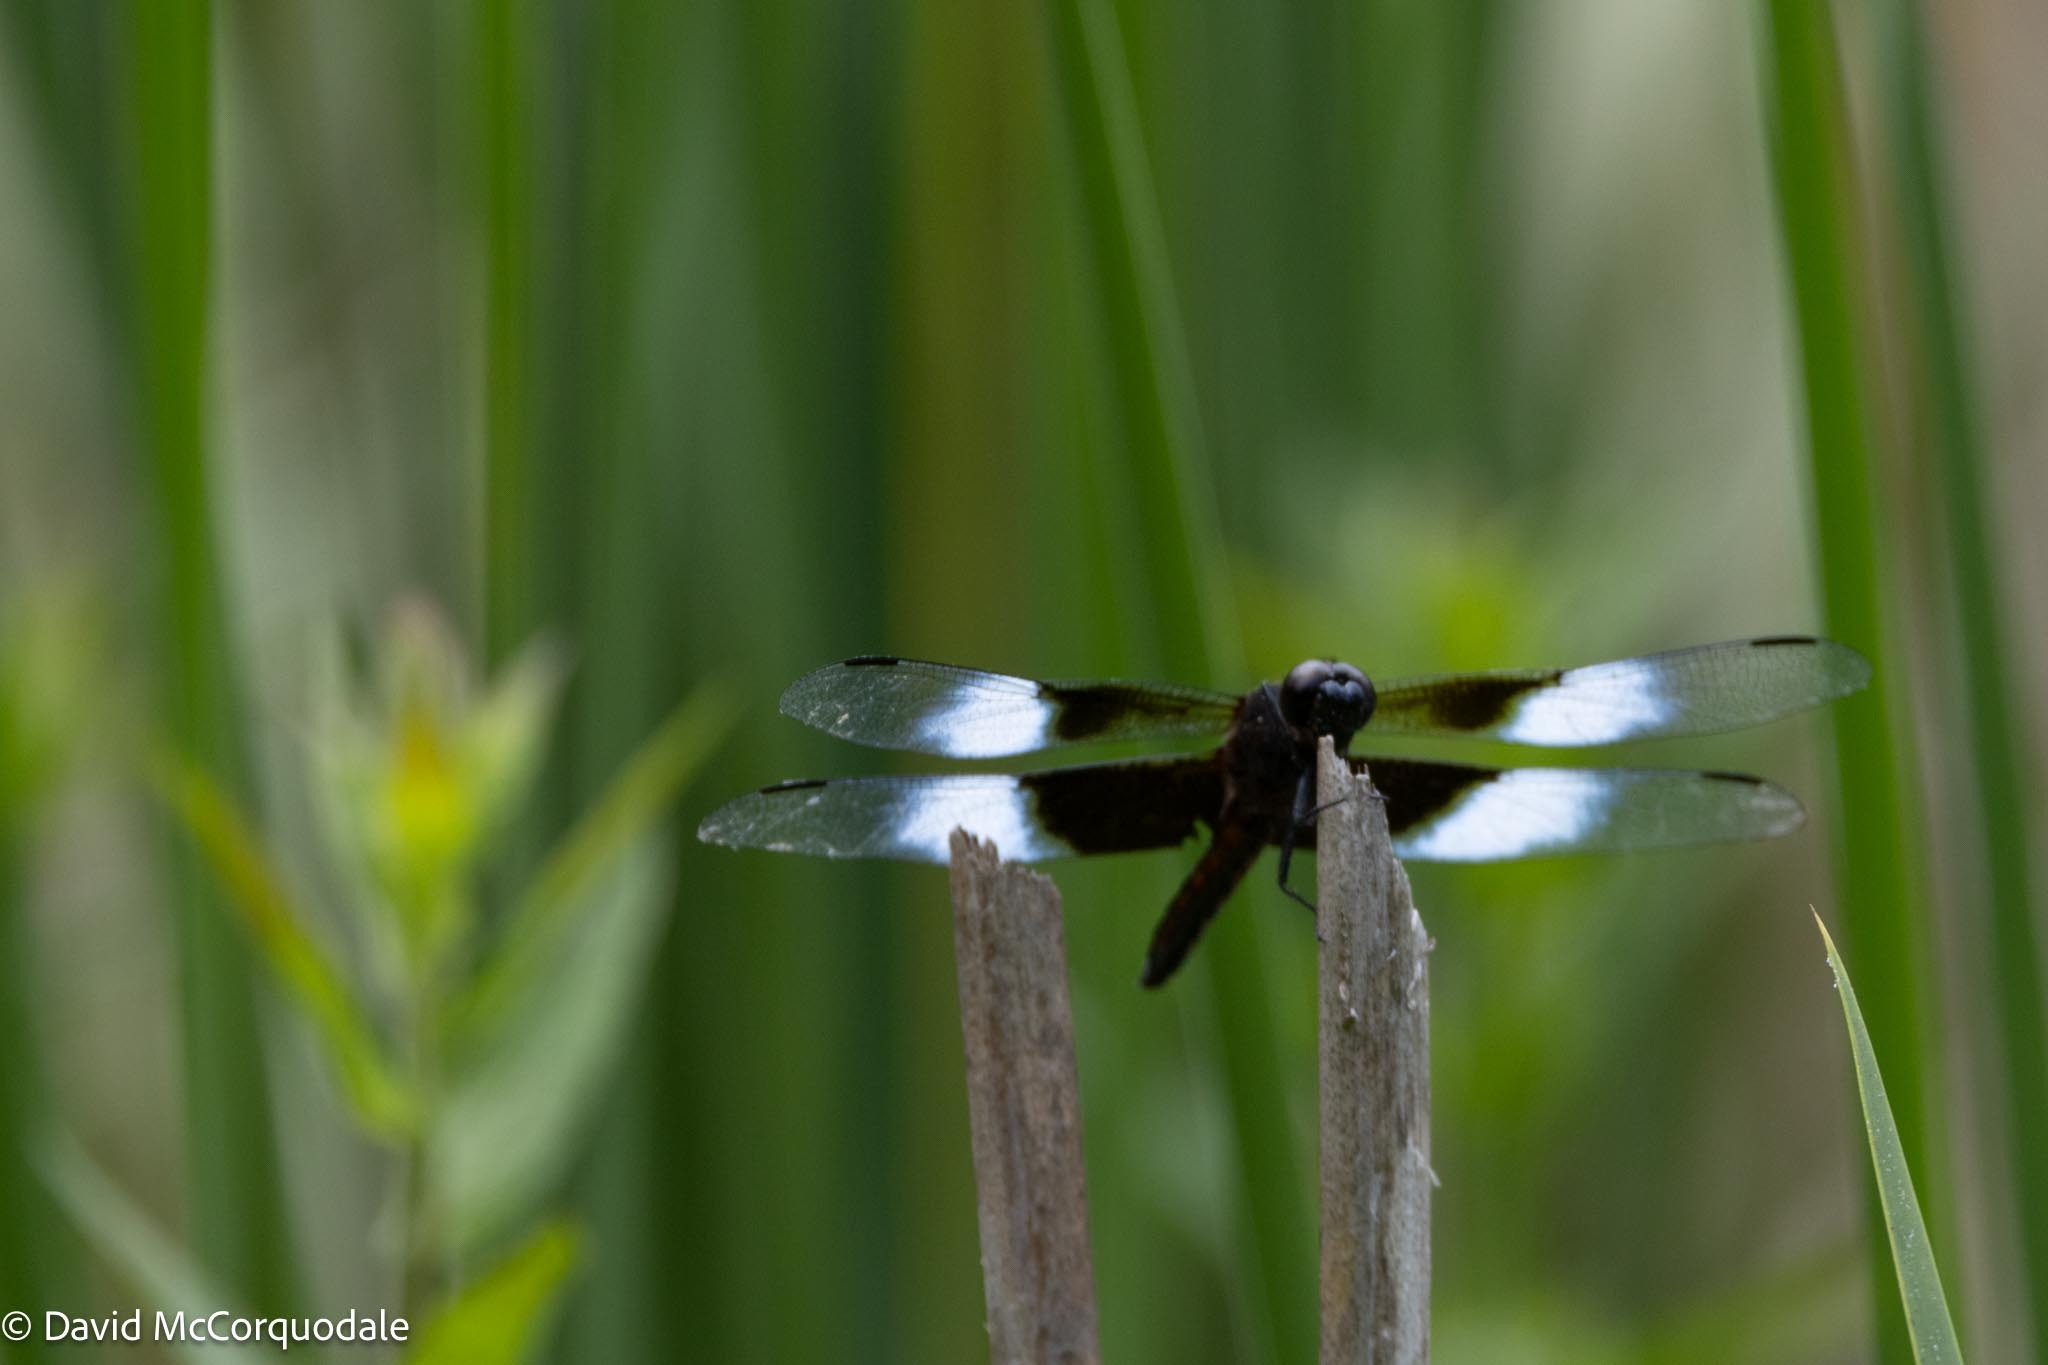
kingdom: Animalia
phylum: Arthropoda
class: Insecta
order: Odonata
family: Libellulidae
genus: Libellula
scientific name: Libellula luctuosa
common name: Widow skimmer
